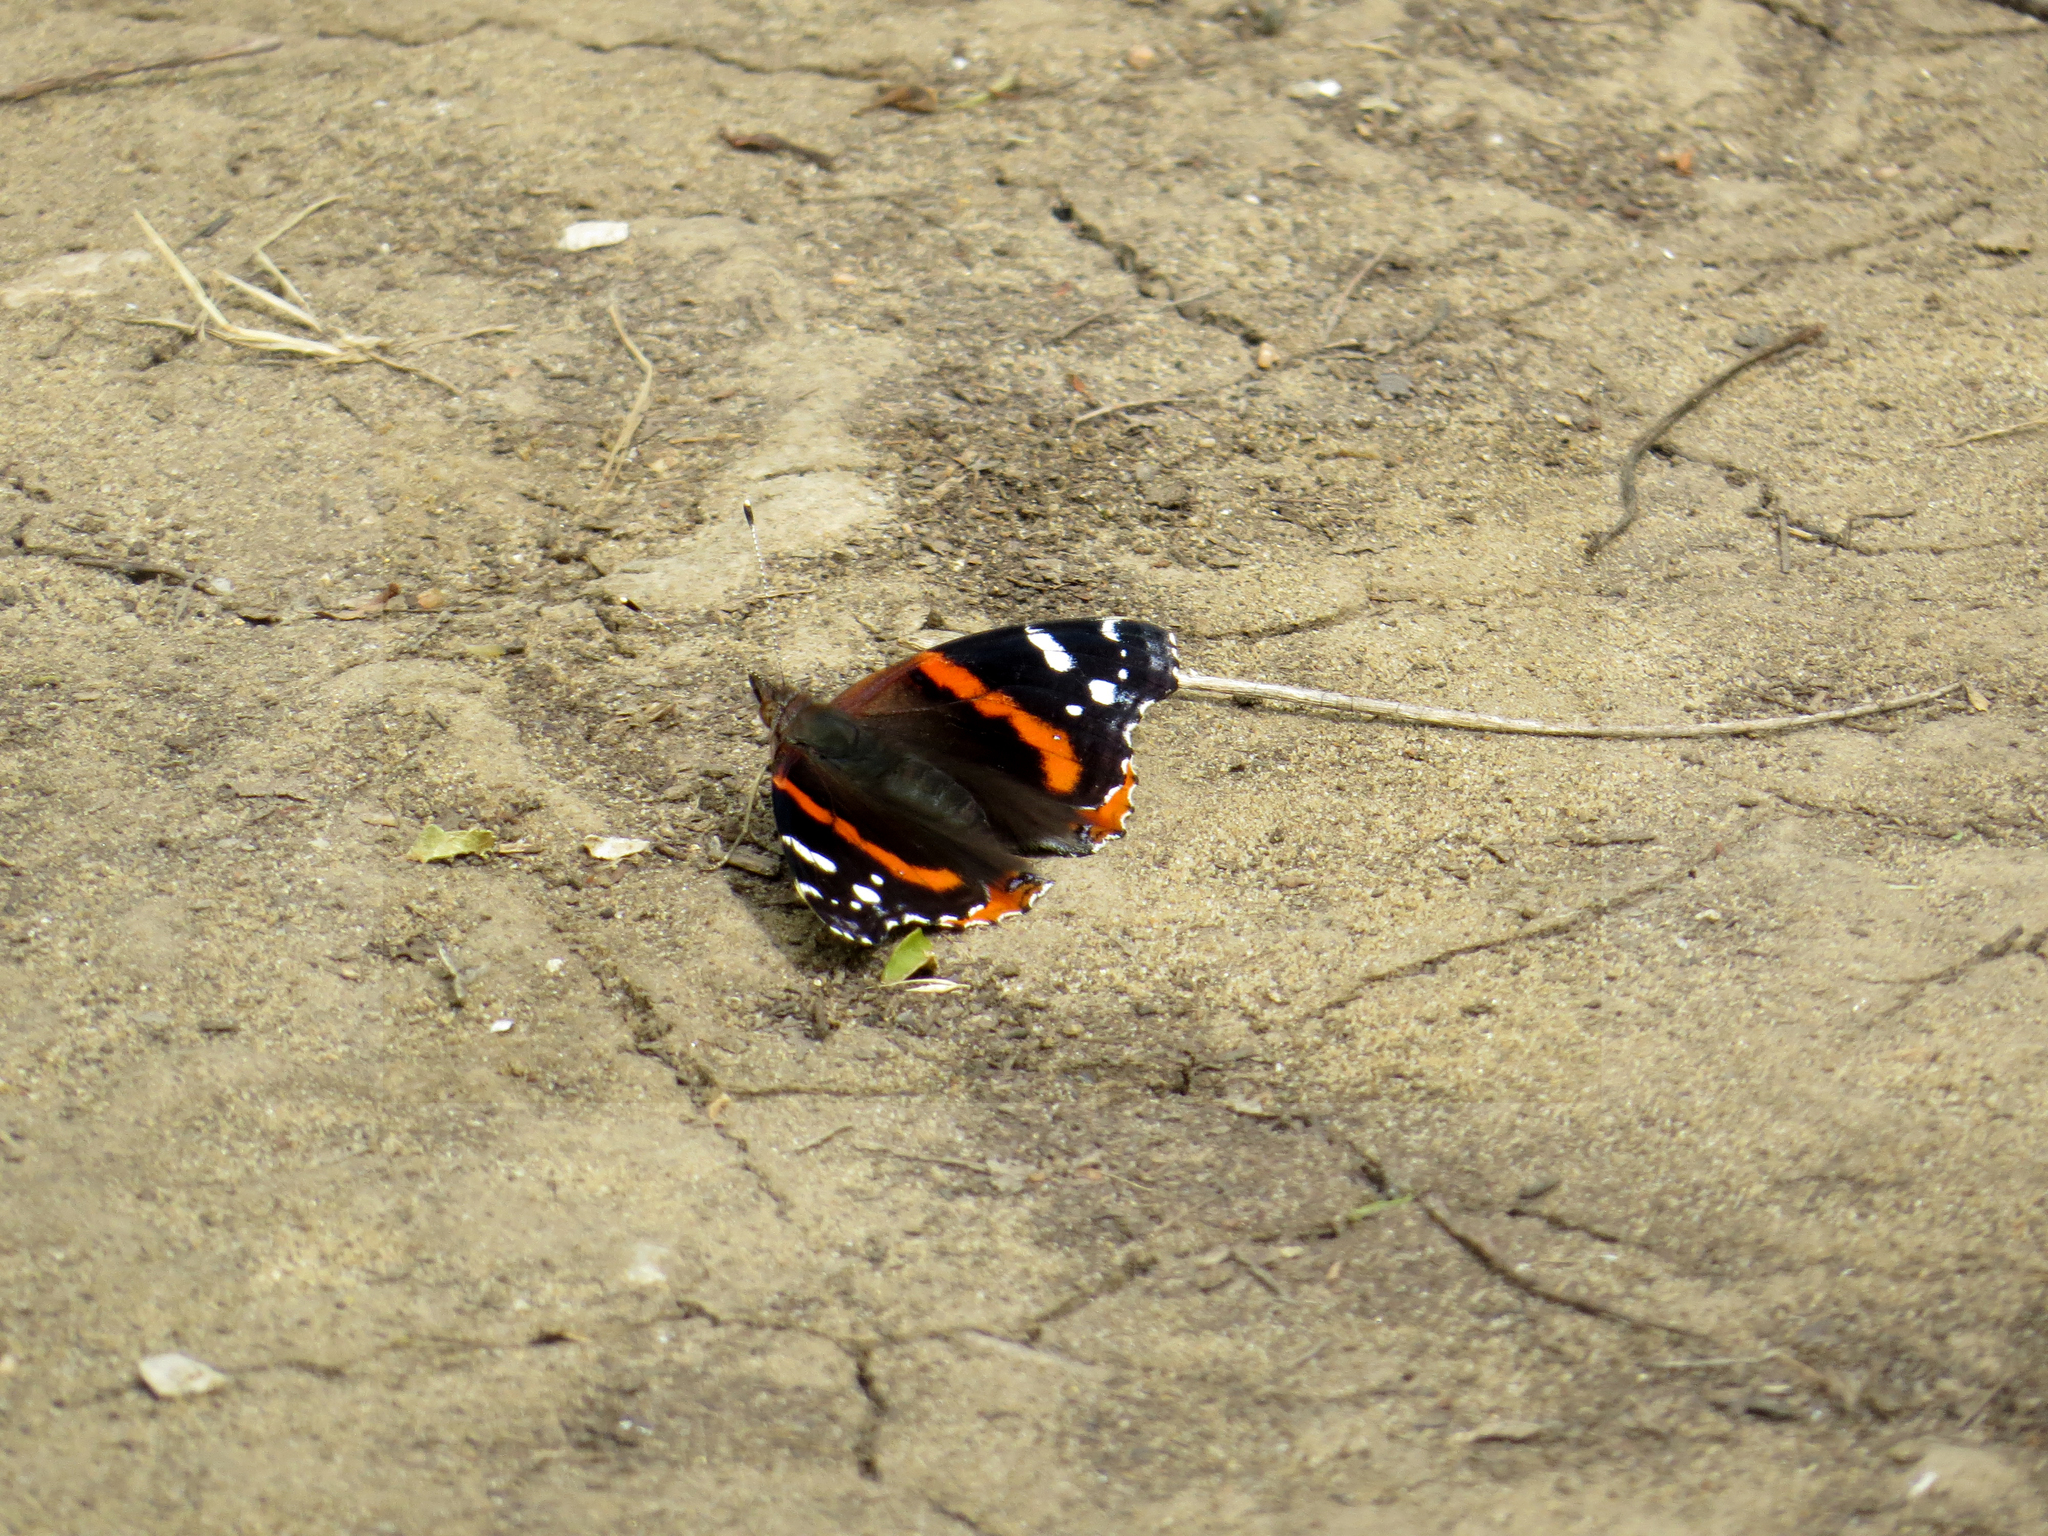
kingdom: Animalia
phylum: Arthropoda
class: Insecta
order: Lepidoptera
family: Nymphalidae
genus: Vanessa
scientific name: Vanessa atalanta
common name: Red admiral
